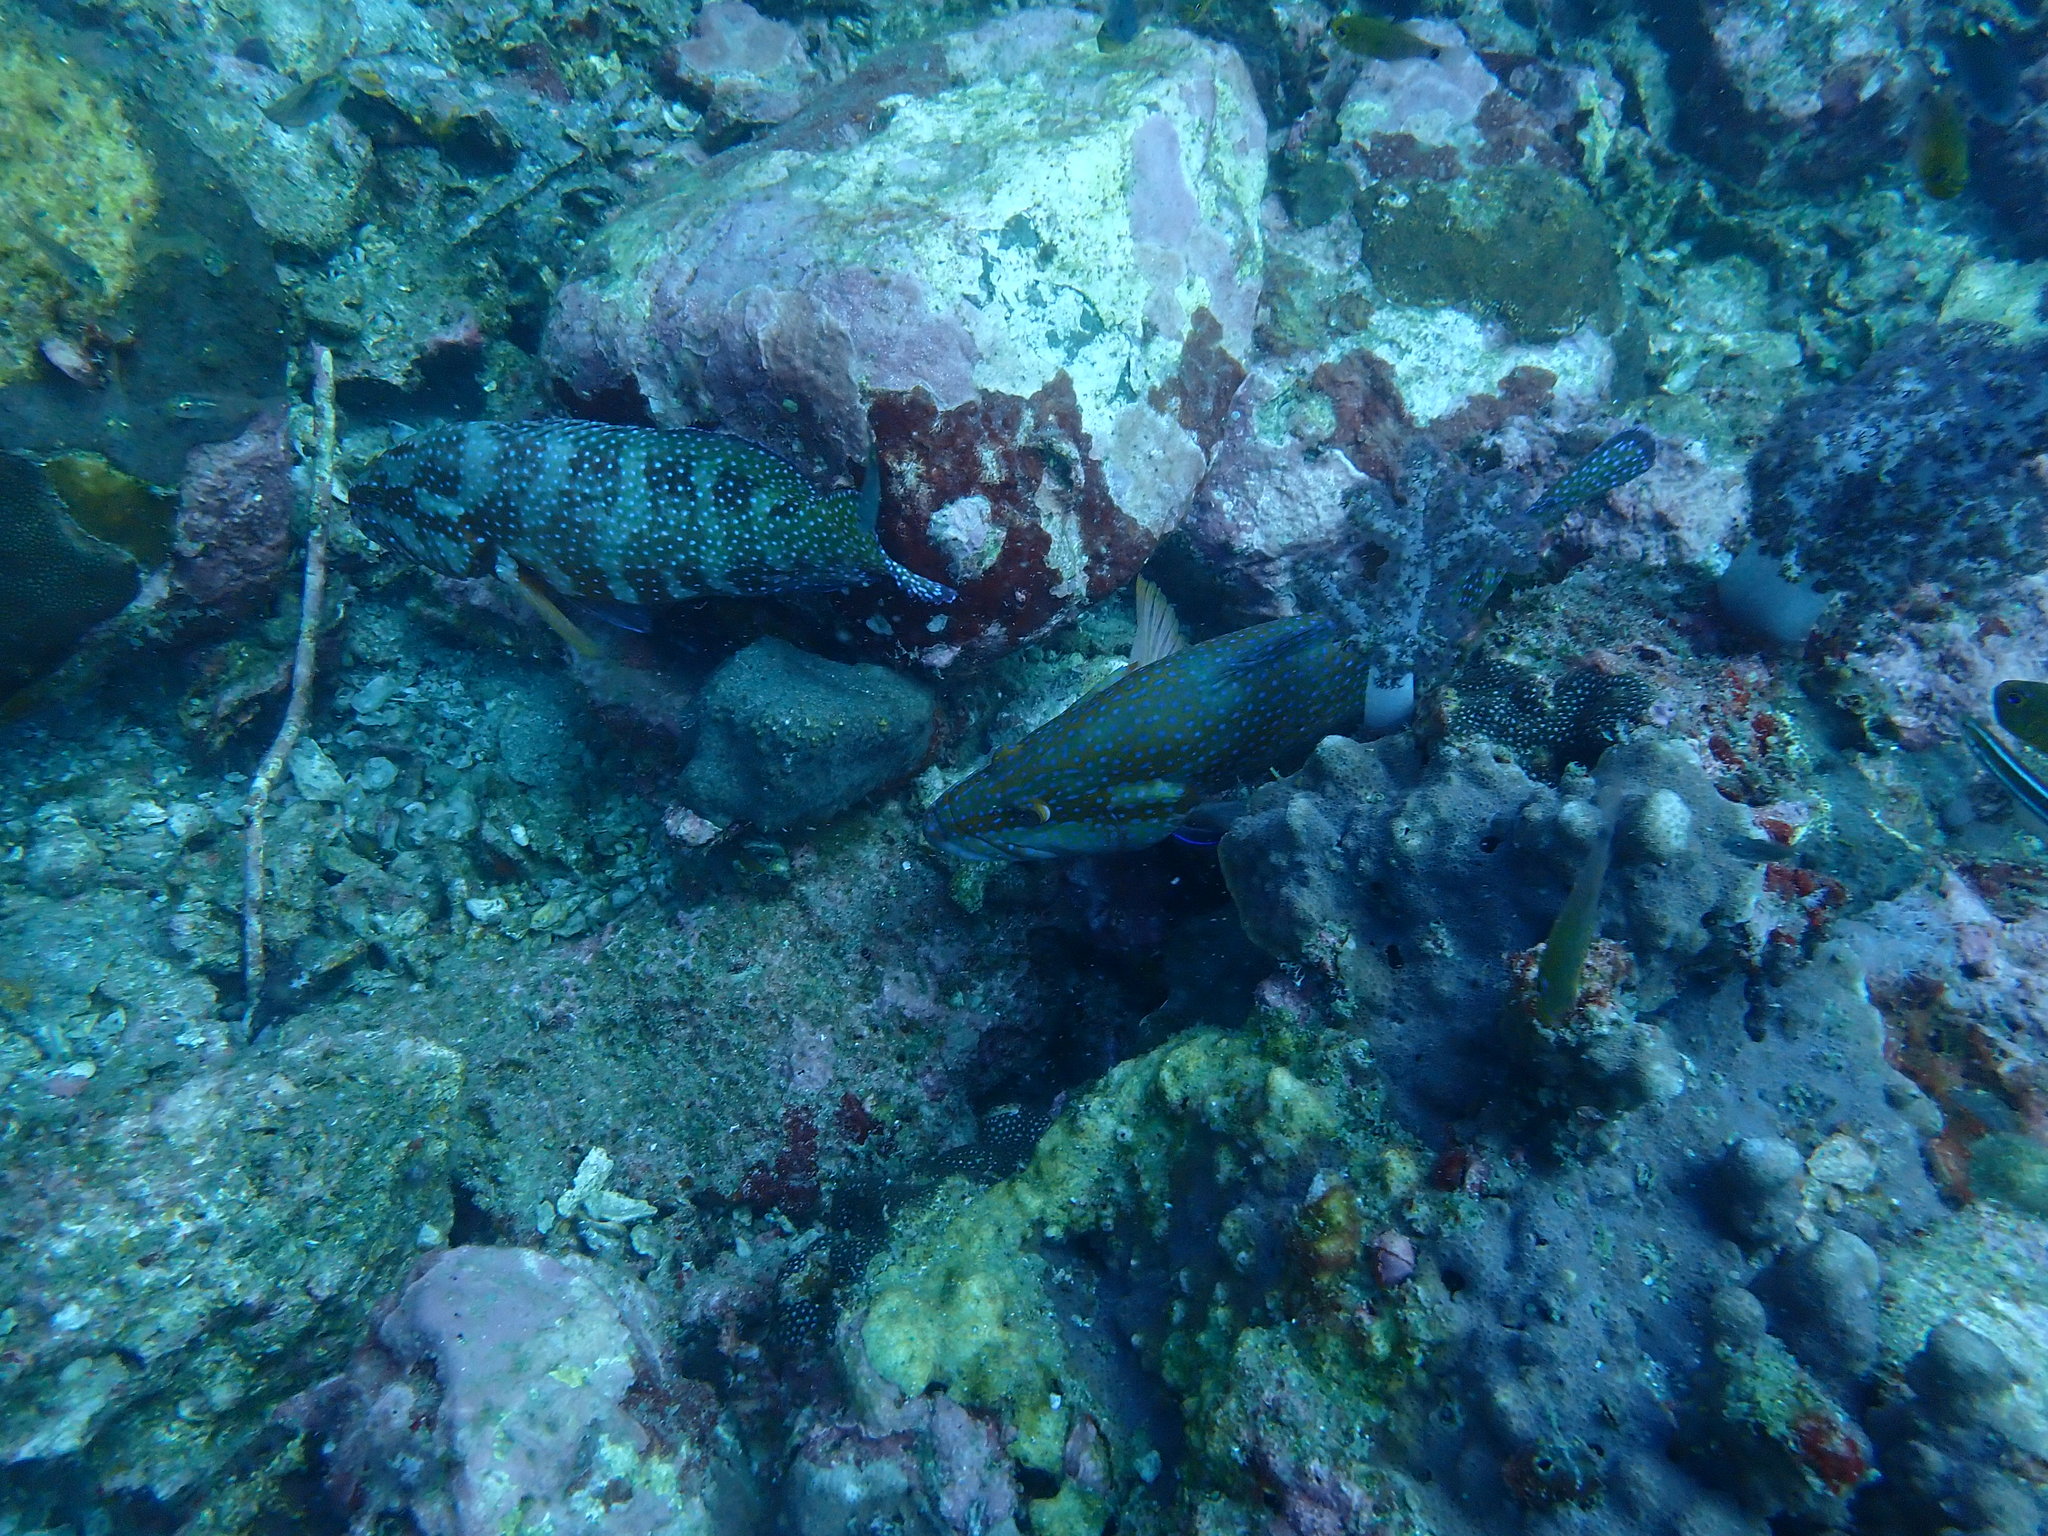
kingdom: Animalia
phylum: Chordata
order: Perciformes
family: Serranidae
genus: Cephalopholis
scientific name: Cephalopholis miniata
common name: Coral hind
